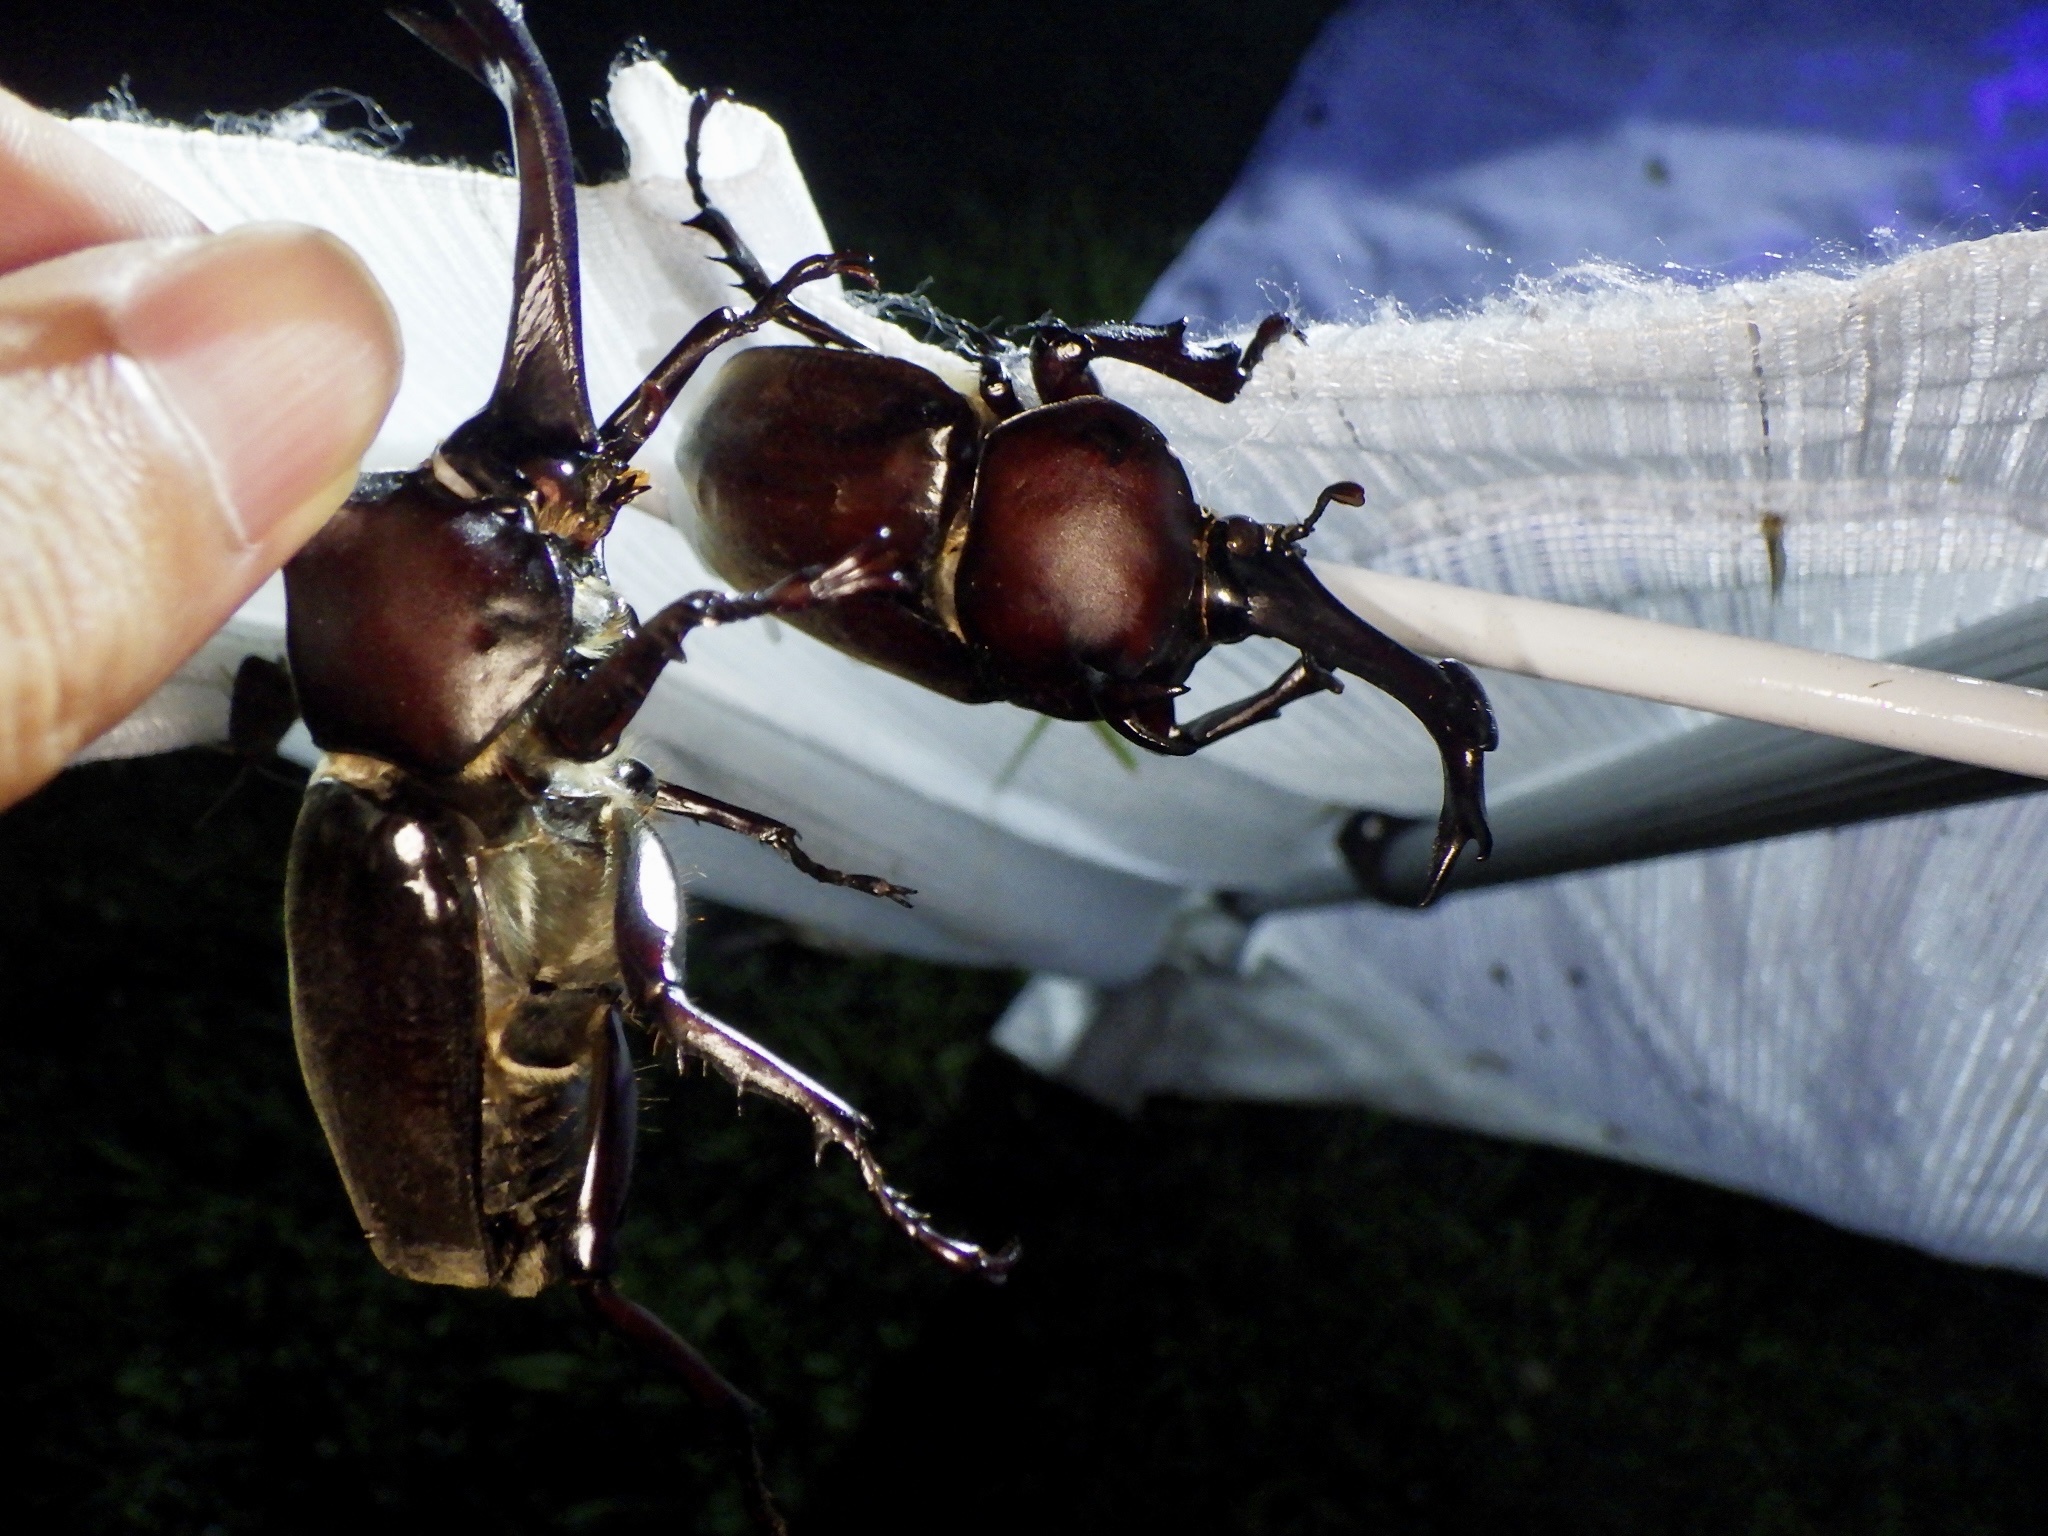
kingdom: Animalia
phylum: Arthropoda
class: Insecta
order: Coleoptera
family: Scarabaeidae
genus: Trypoxylus
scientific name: Trypoxylus dichotomus
